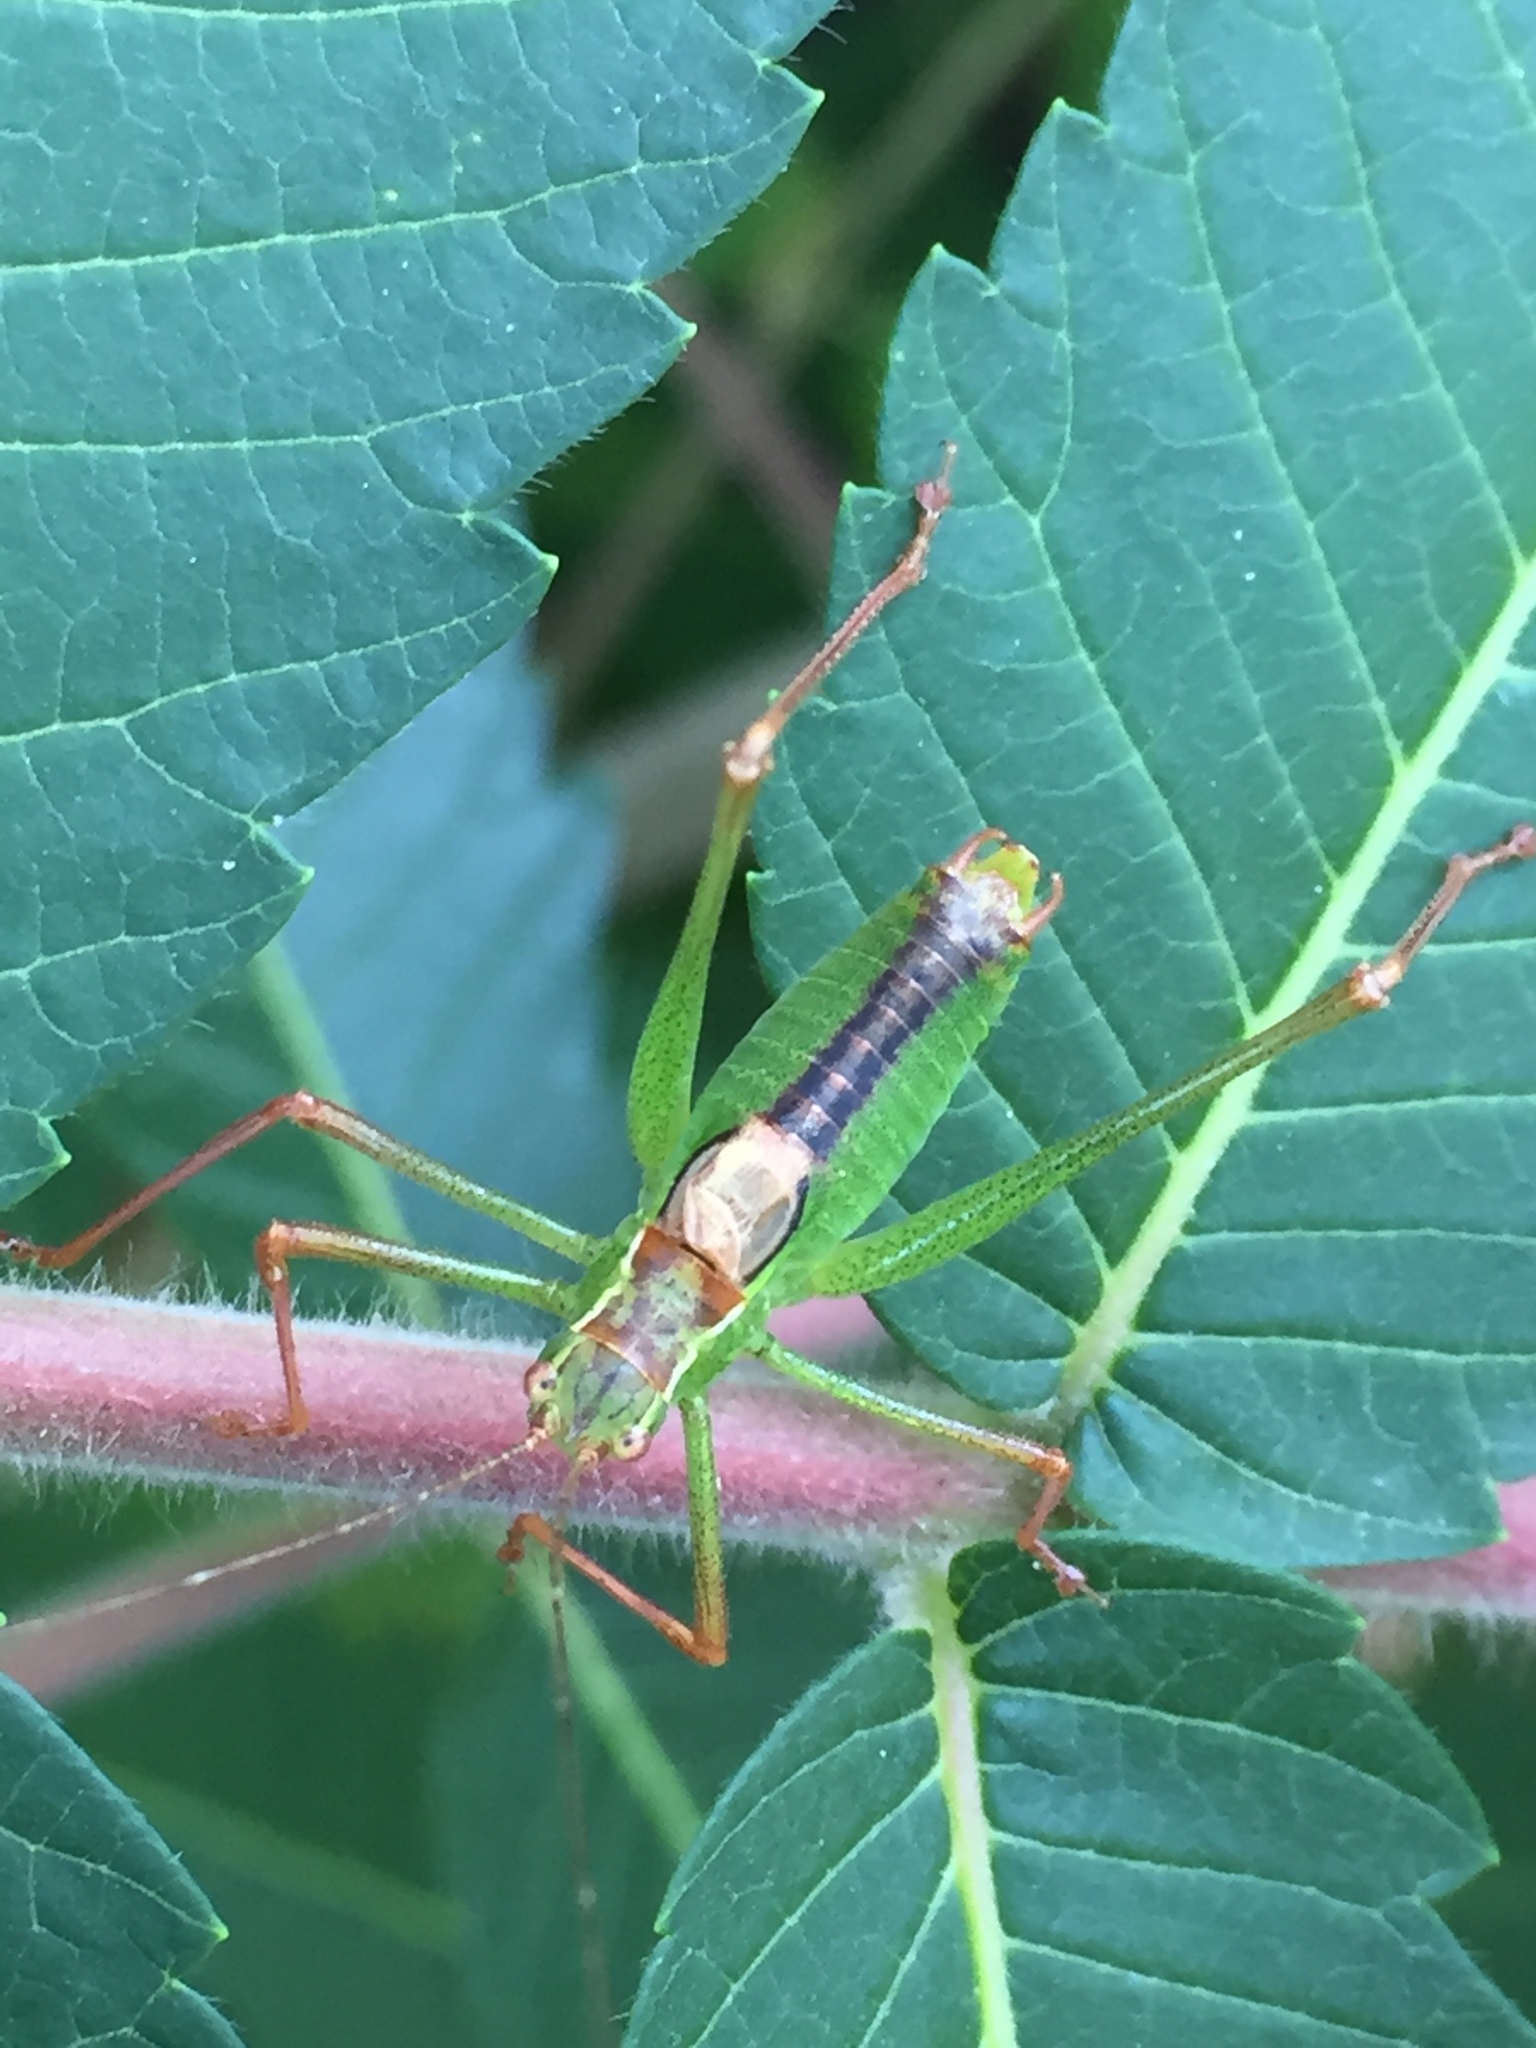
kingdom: Animalia
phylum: Arthropoda
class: Insecta
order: Orthoptera
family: Tettigoniidae
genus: Leptophyes
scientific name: Leptophyes punctatissima
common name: Speckled bush-cricket
